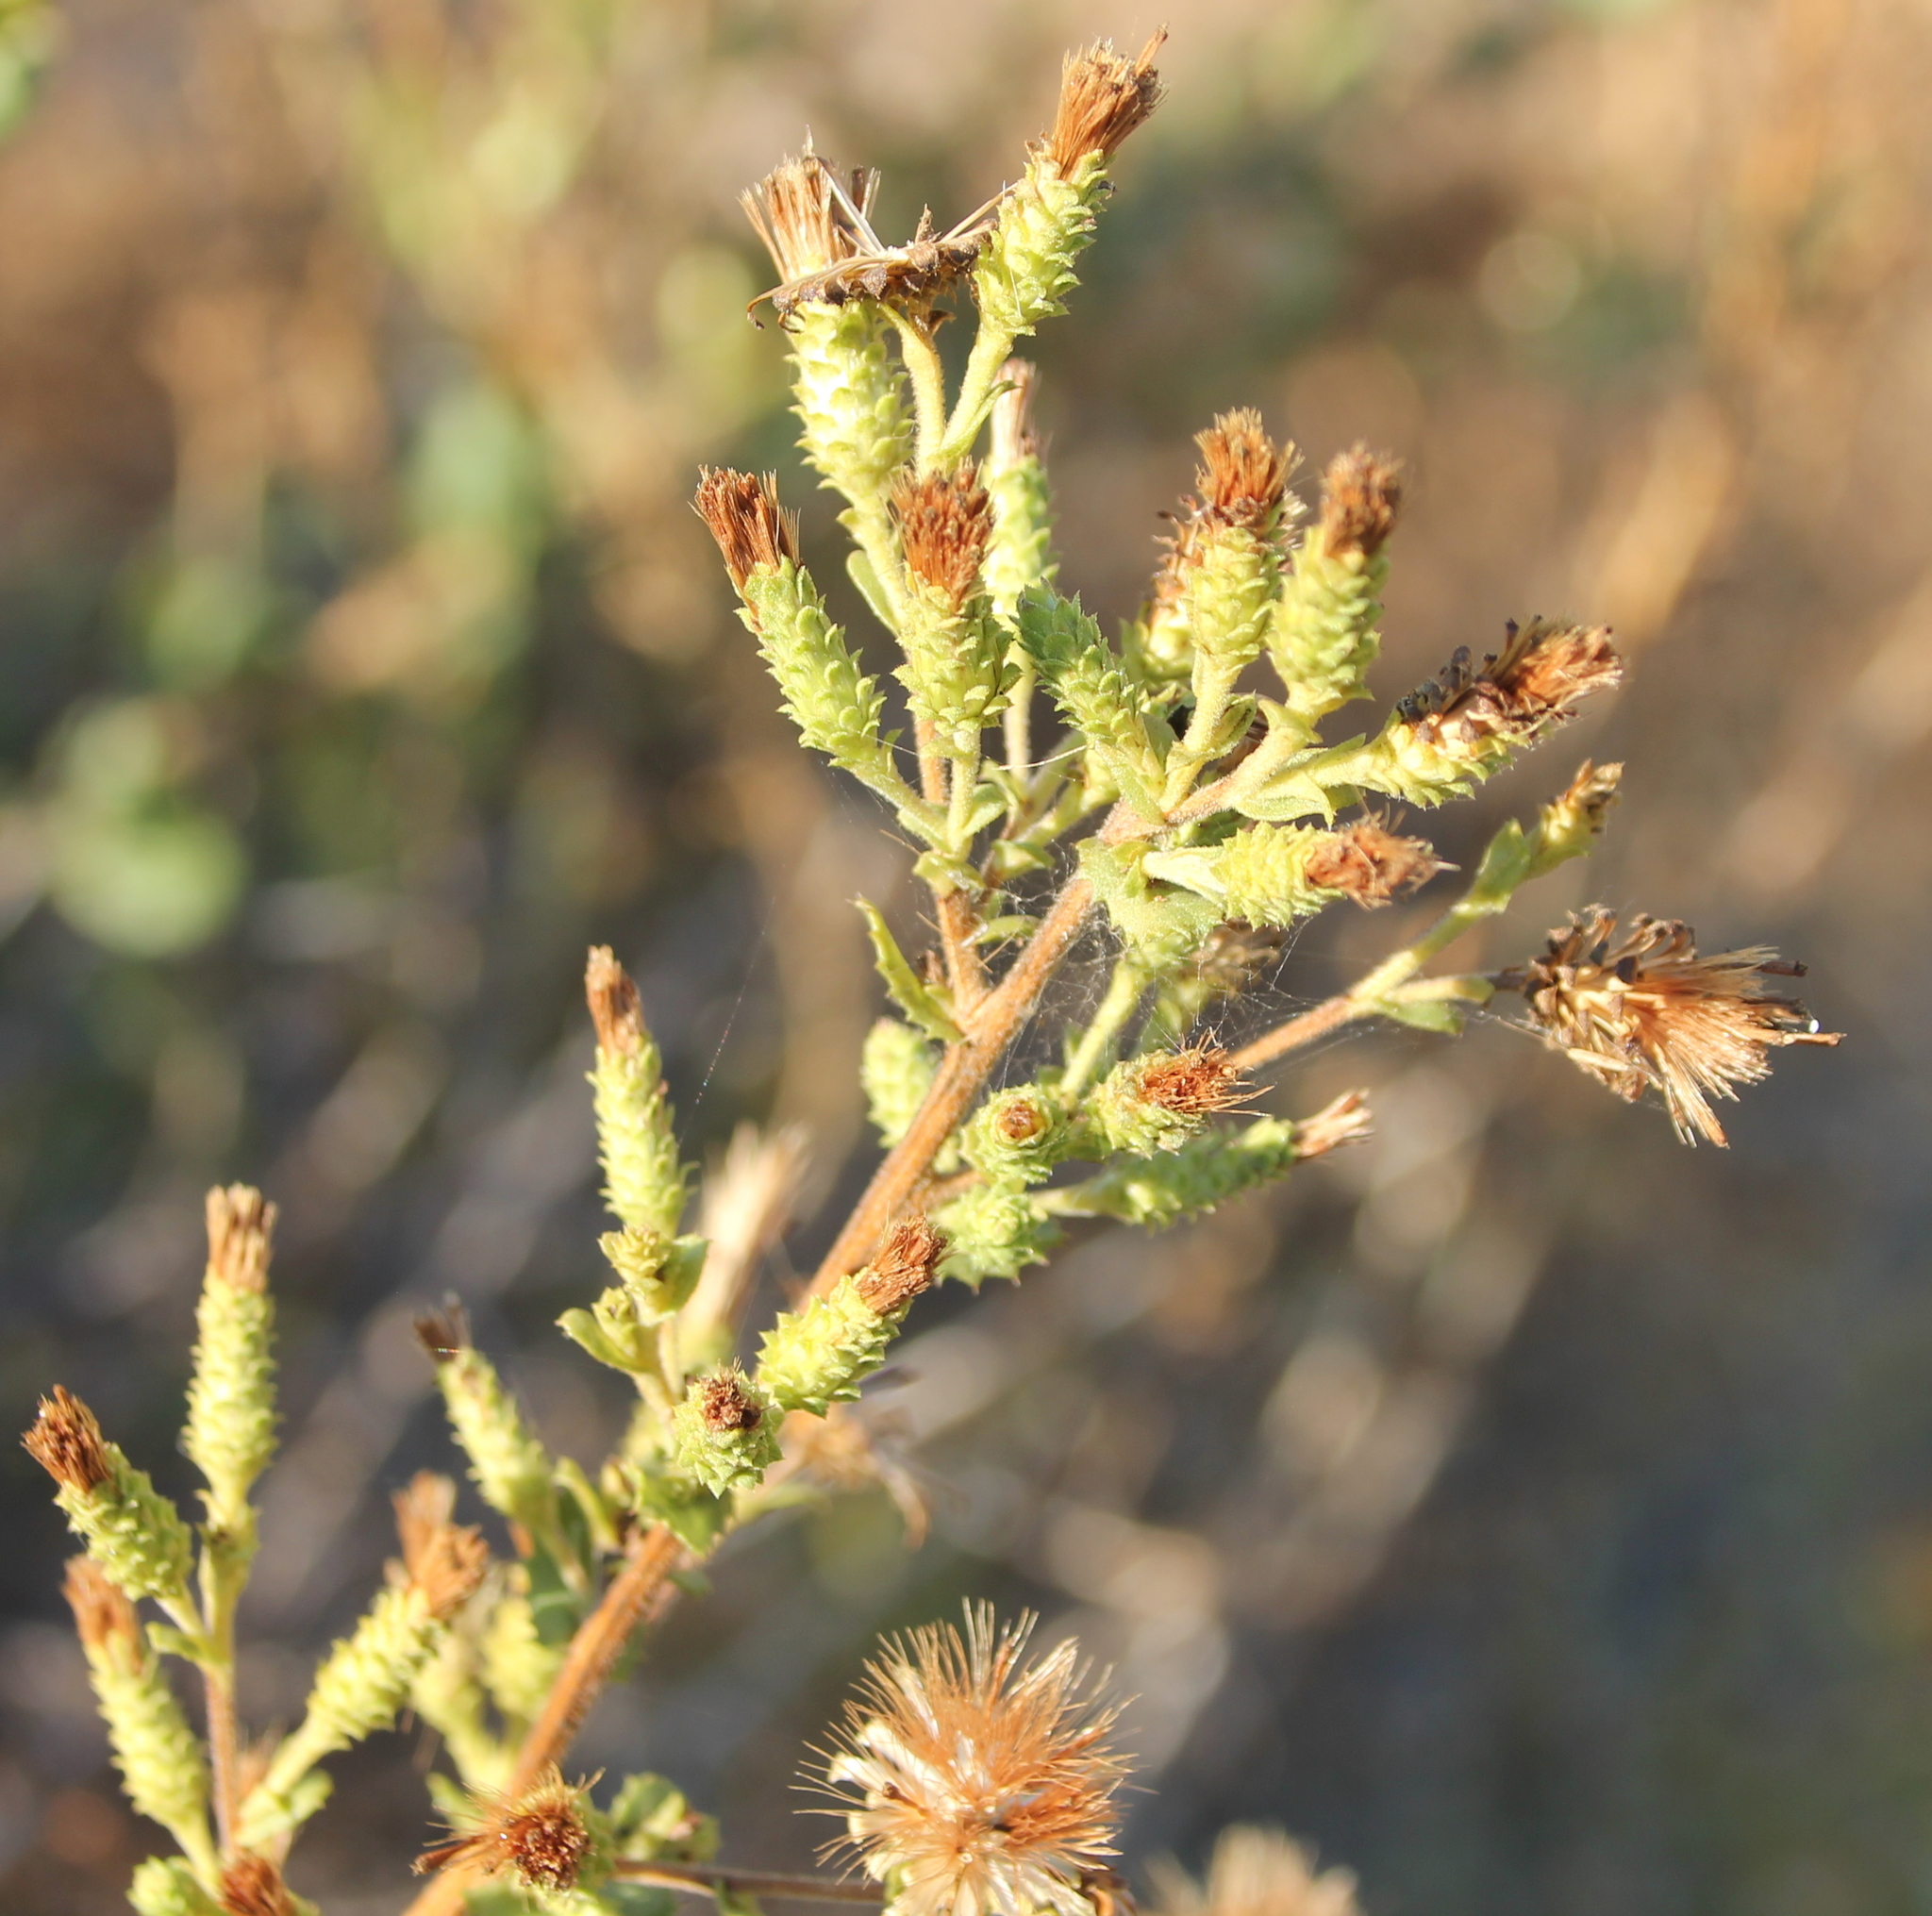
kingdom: Plantae
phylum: Tracheophyta
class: Magnoliopsida
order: Asterales
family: Asteraceae
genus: Hazardia
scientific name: Hazardia squarrosa
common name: Saw-tooth goldenbush
